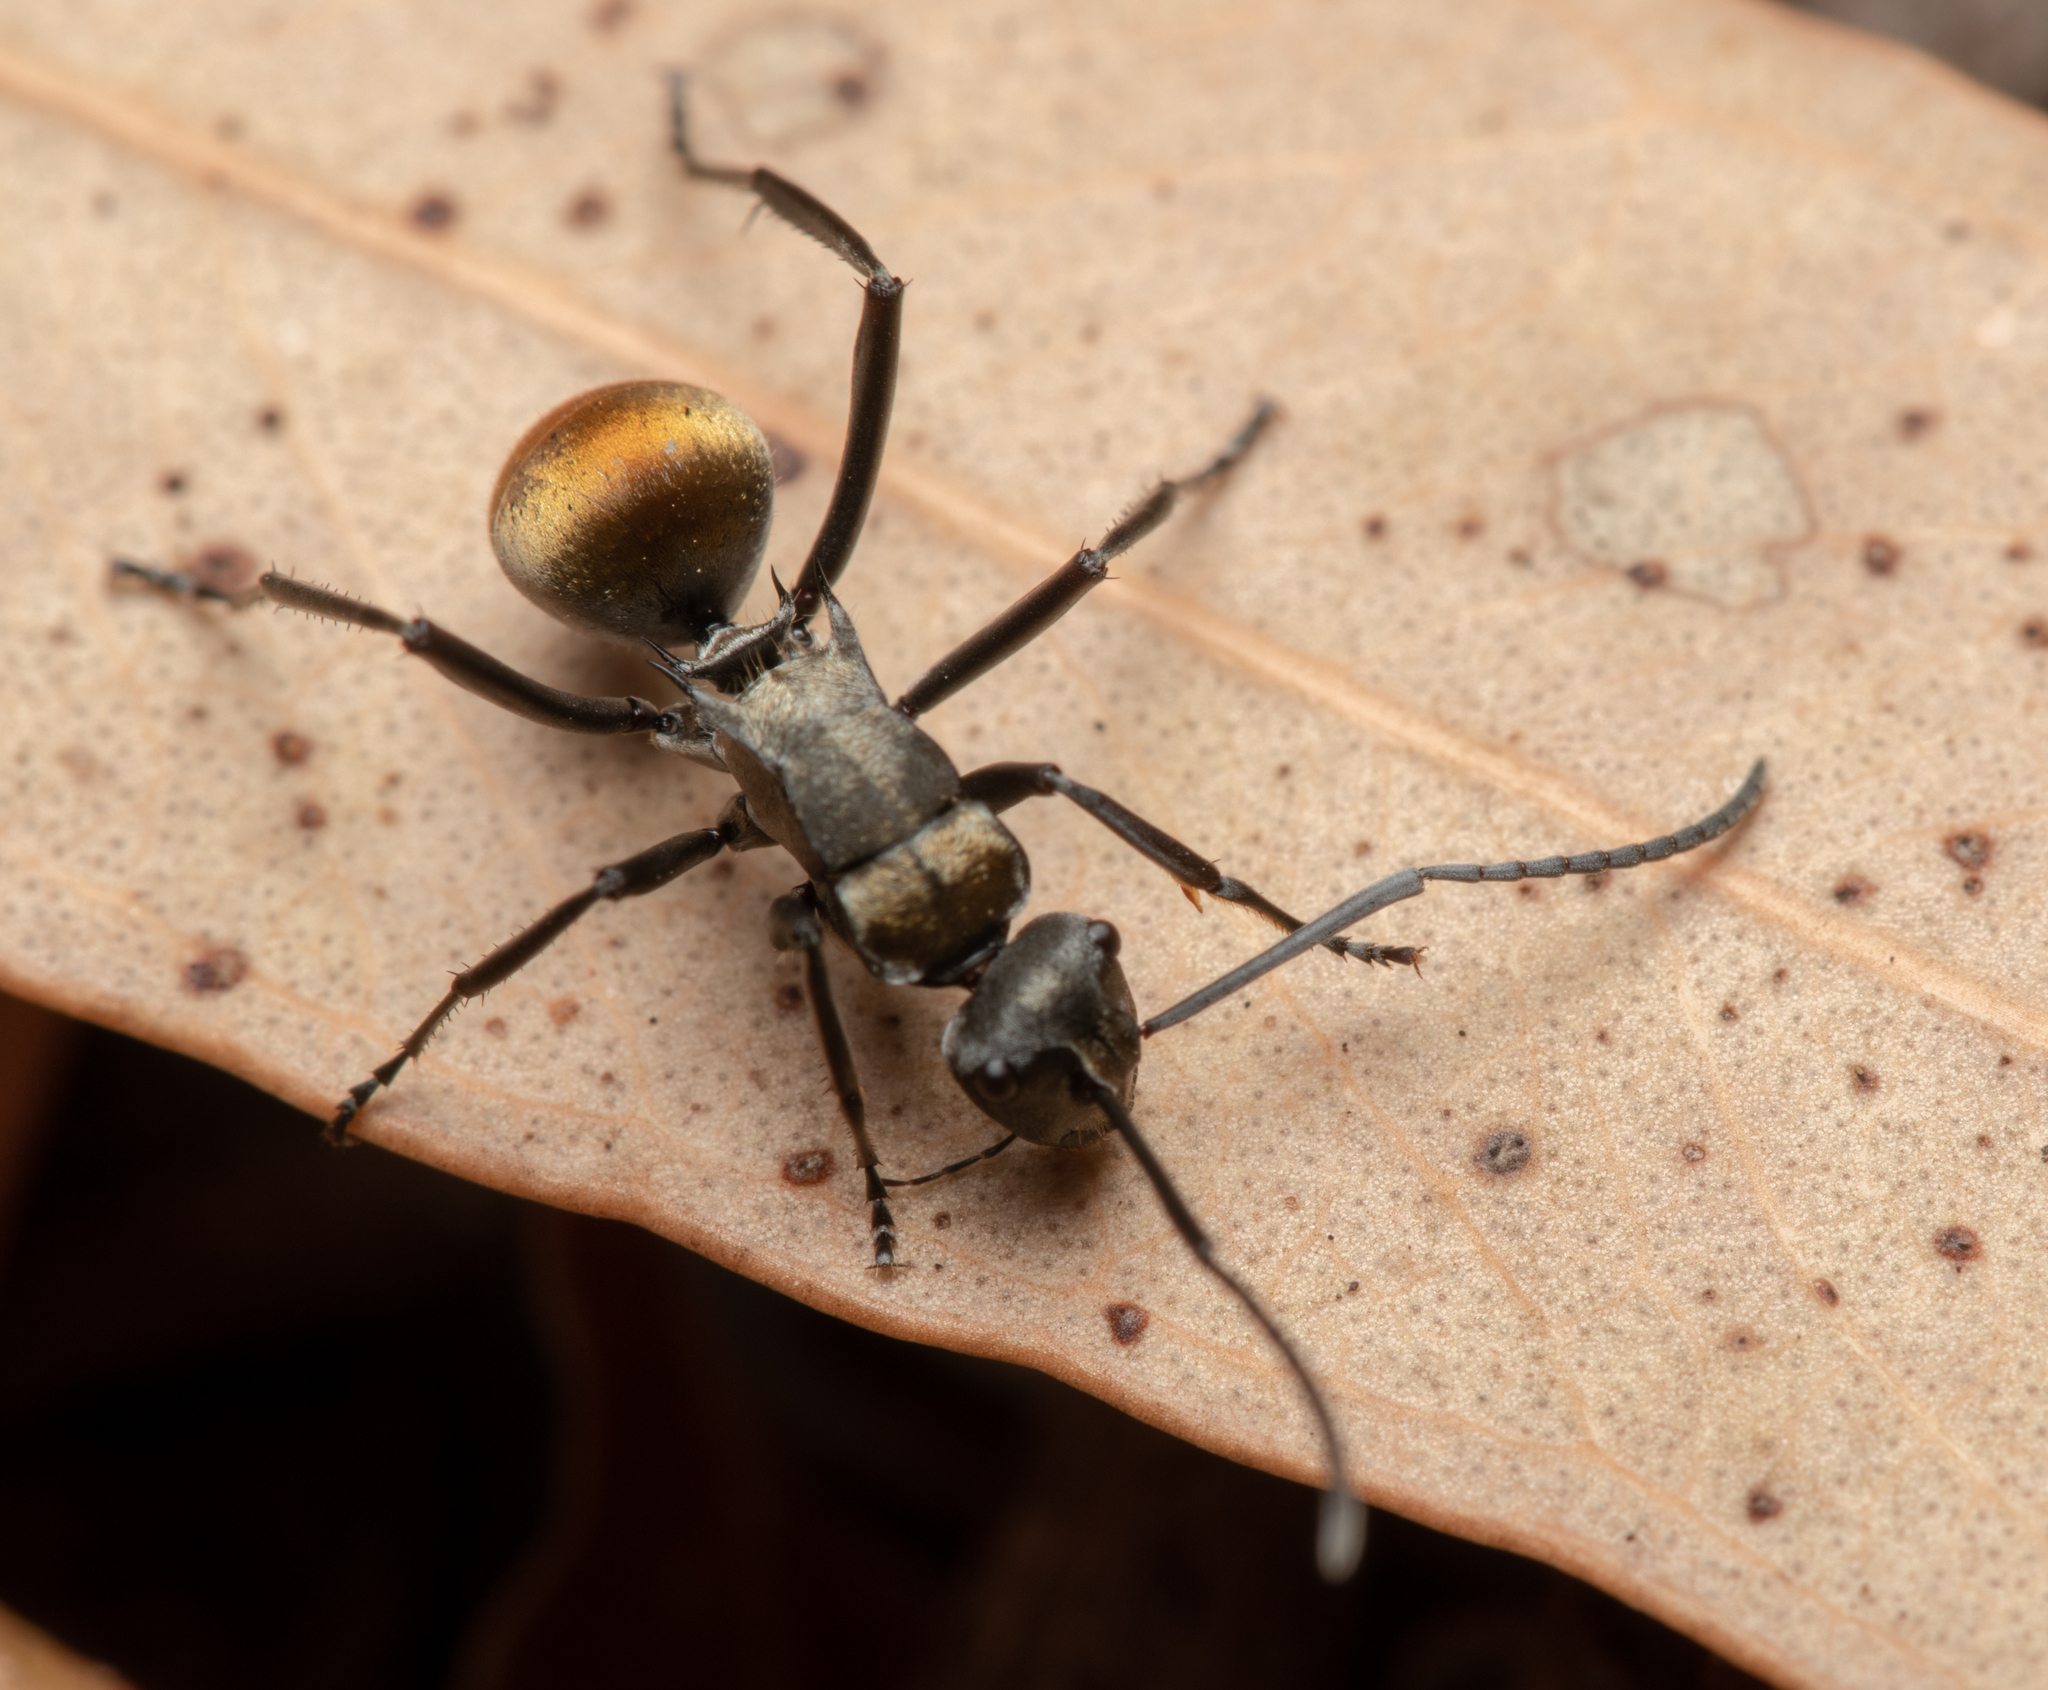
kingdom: Animalia
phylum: Arthropoda
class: Insecta
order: Hymenoptera
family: Formicidae
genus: Polyrhachis
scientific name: Polyrhachis ammon
